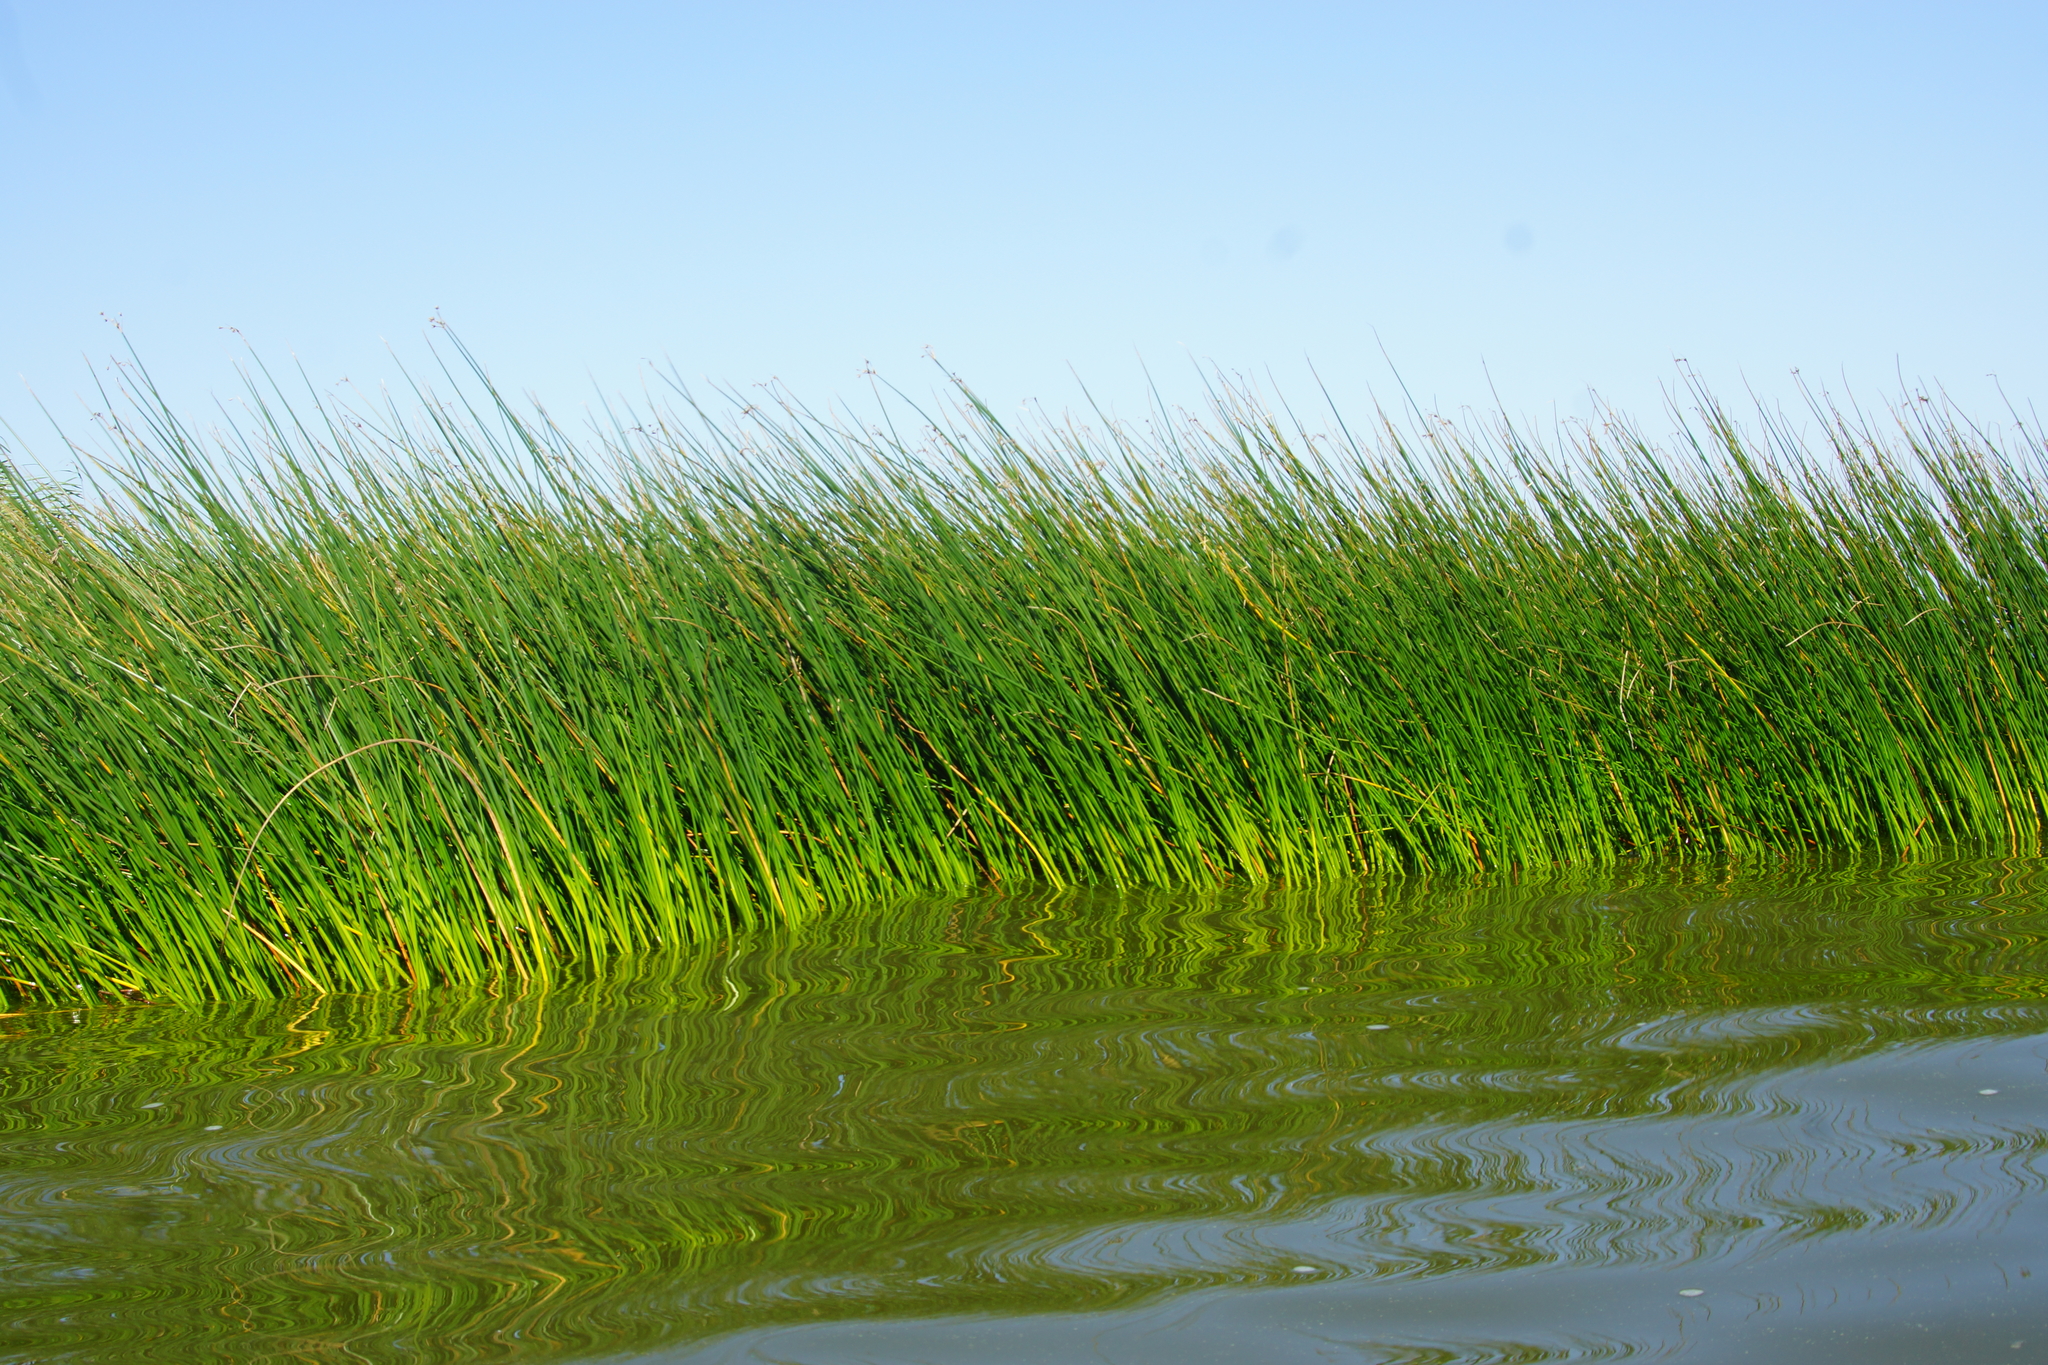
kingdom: Plantae
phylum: Tracheophyta
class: Liliopsida
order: Poales
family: Cyperaceae
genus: Schoenoplectus
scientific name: Schoenoplectus lacustris
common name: Common club-rush
